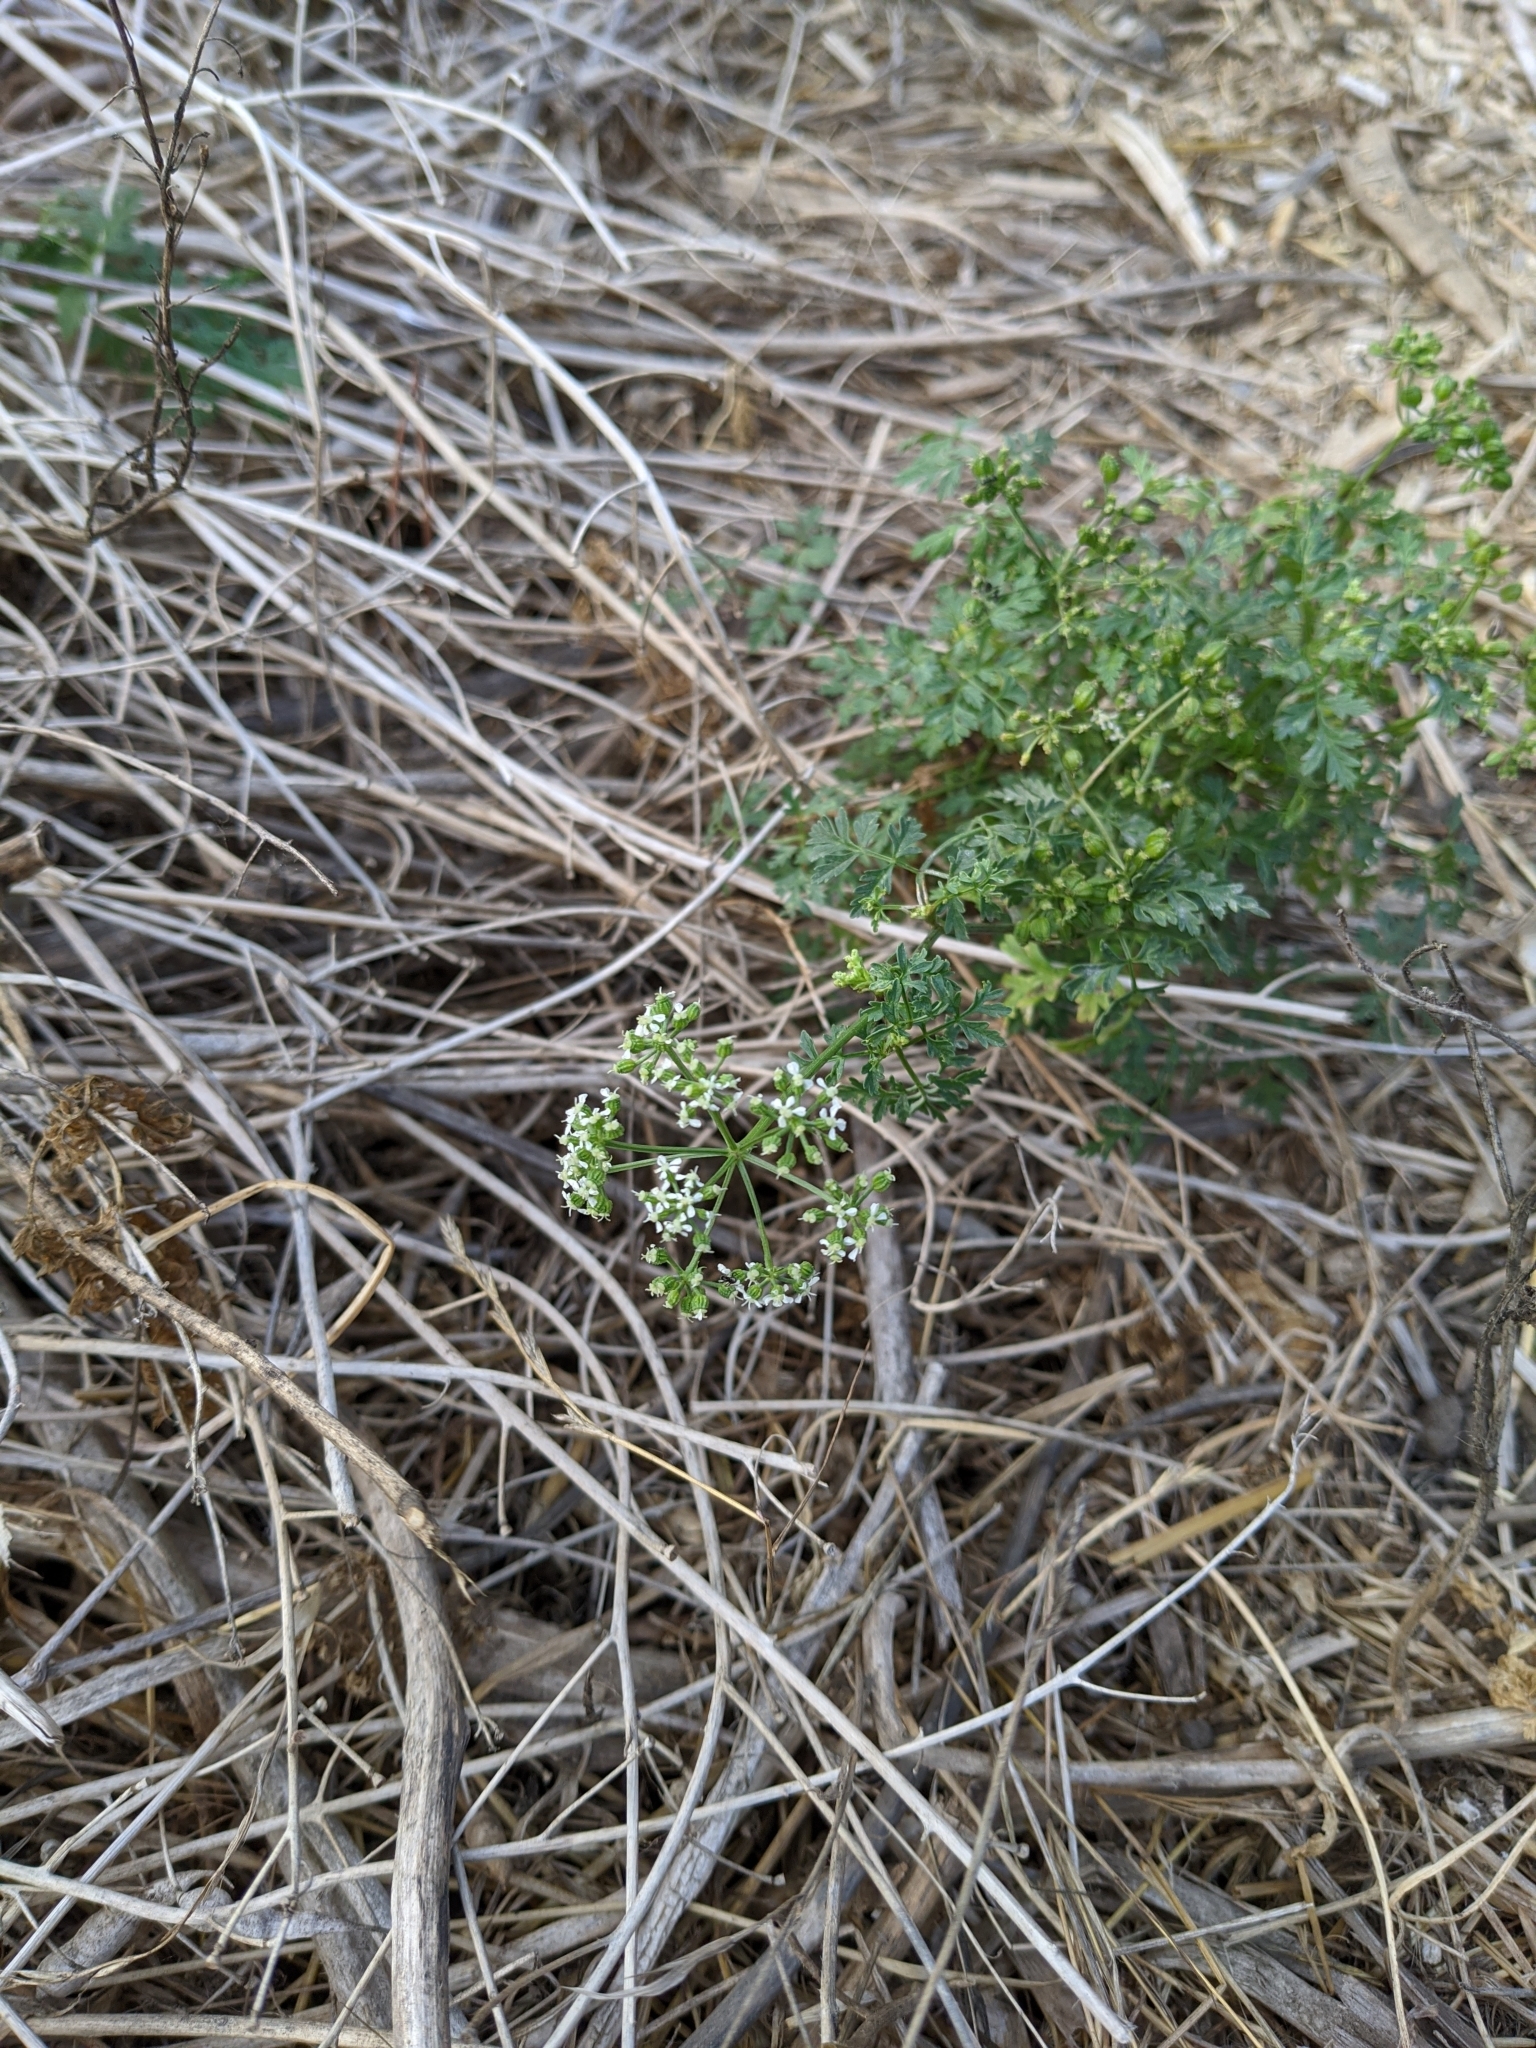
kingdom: Plantae
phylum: Tracheophyta
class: Magnoliopsida
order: Apiales
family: Apiaceae
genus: Conium
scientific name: Conium maculatum
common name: Hemlock
